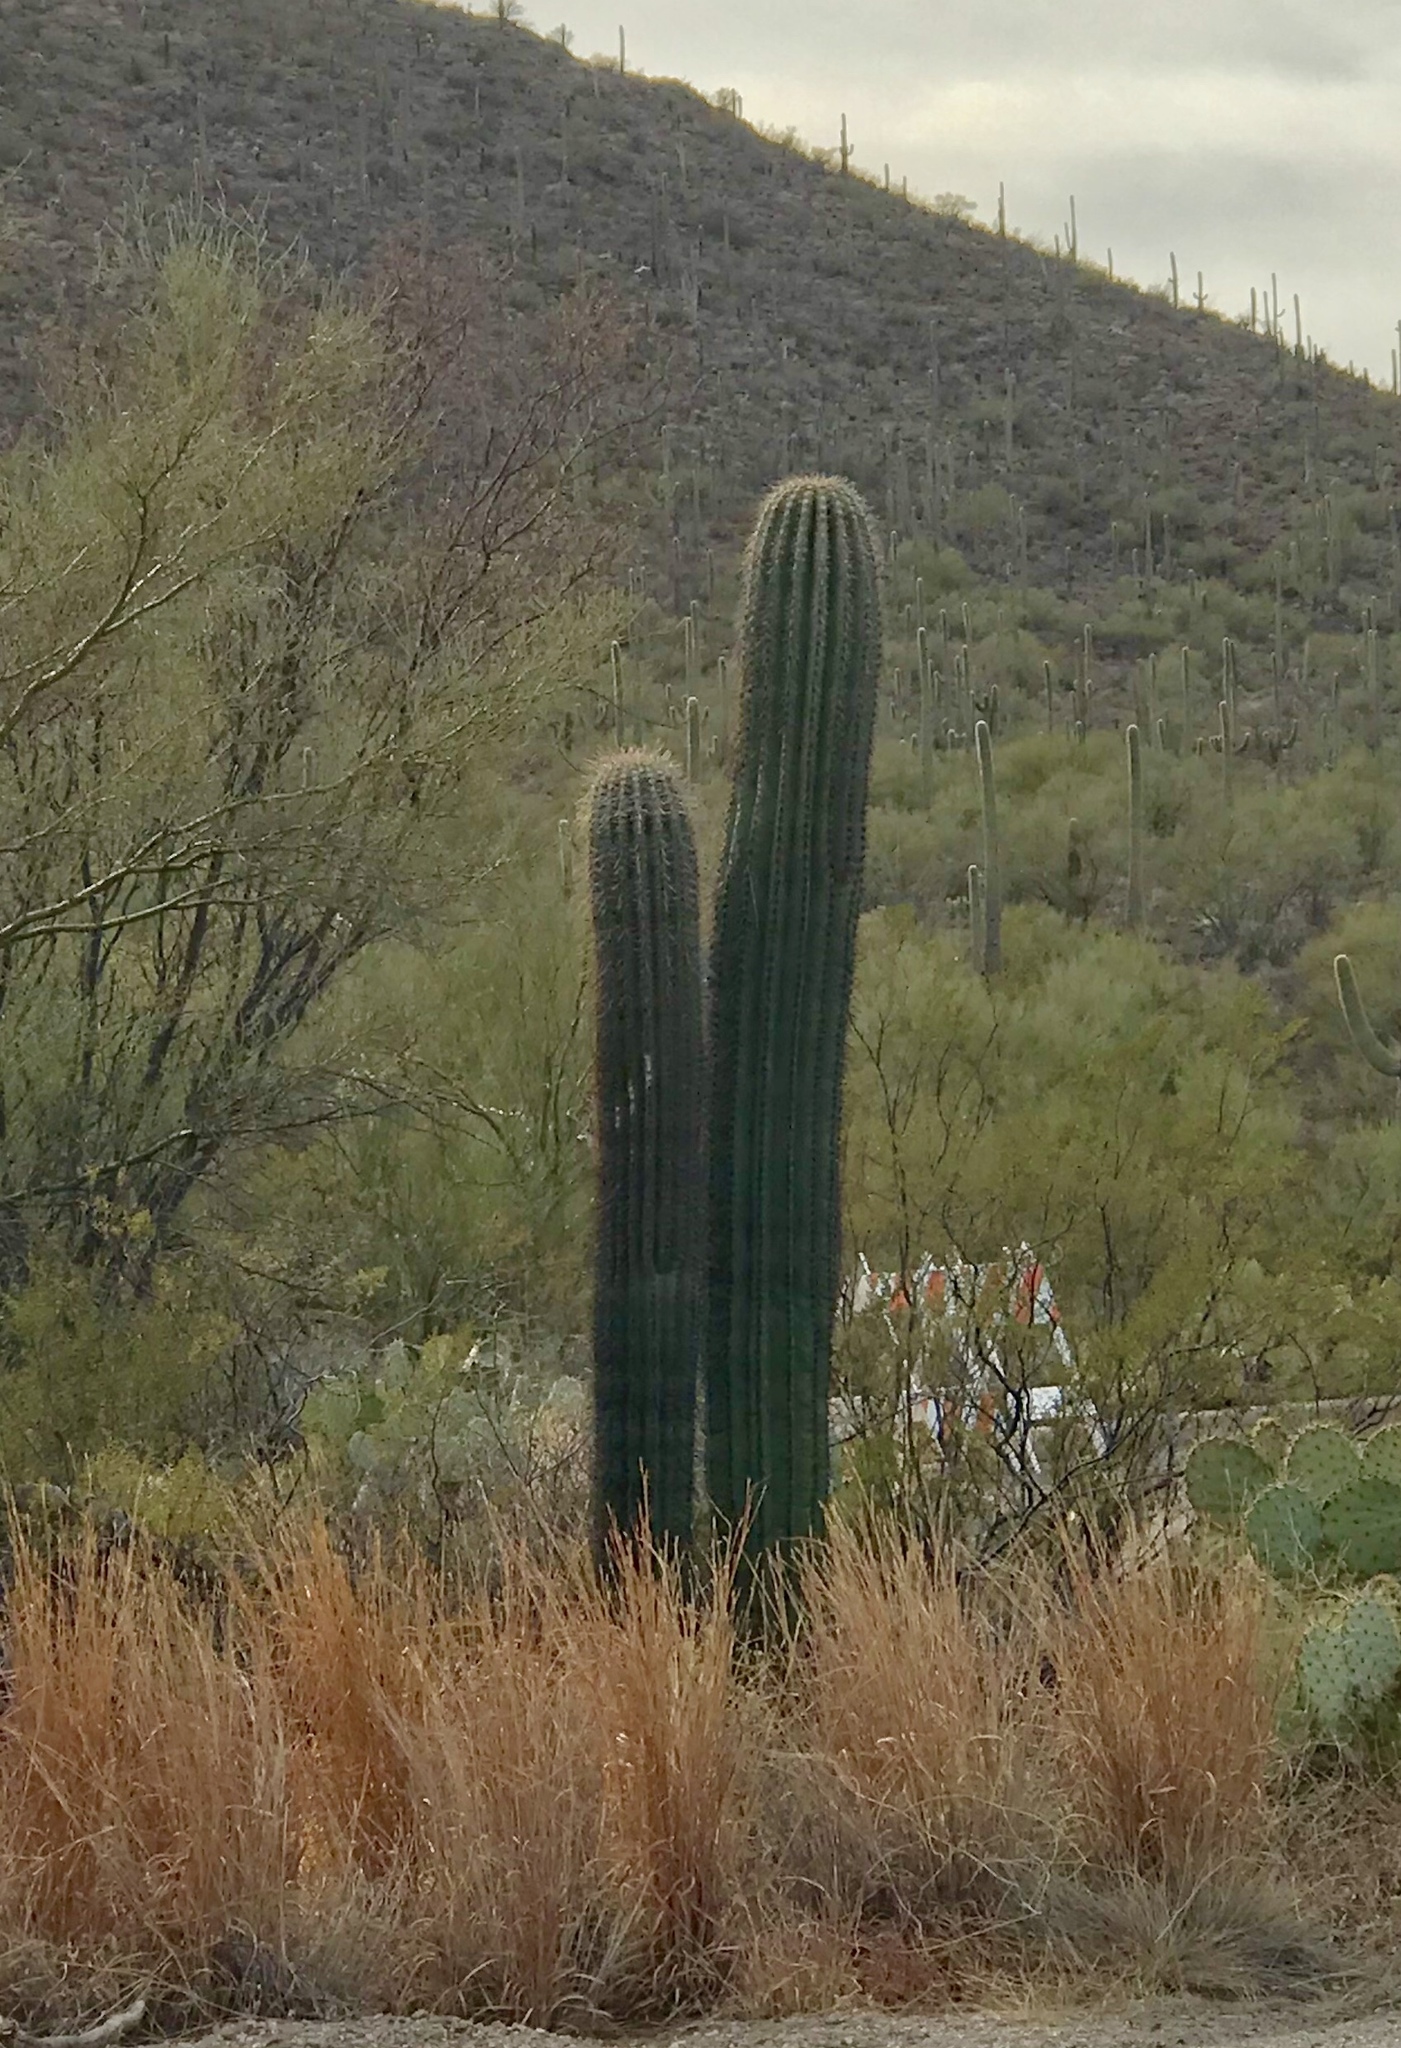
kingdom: Plantae
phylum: Tracheophyta
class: Magnoliopsida
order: Caryophyllales
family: Cactaceae
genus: Carnegiea
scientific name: Carnegiea gigantea
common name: Saguaro
